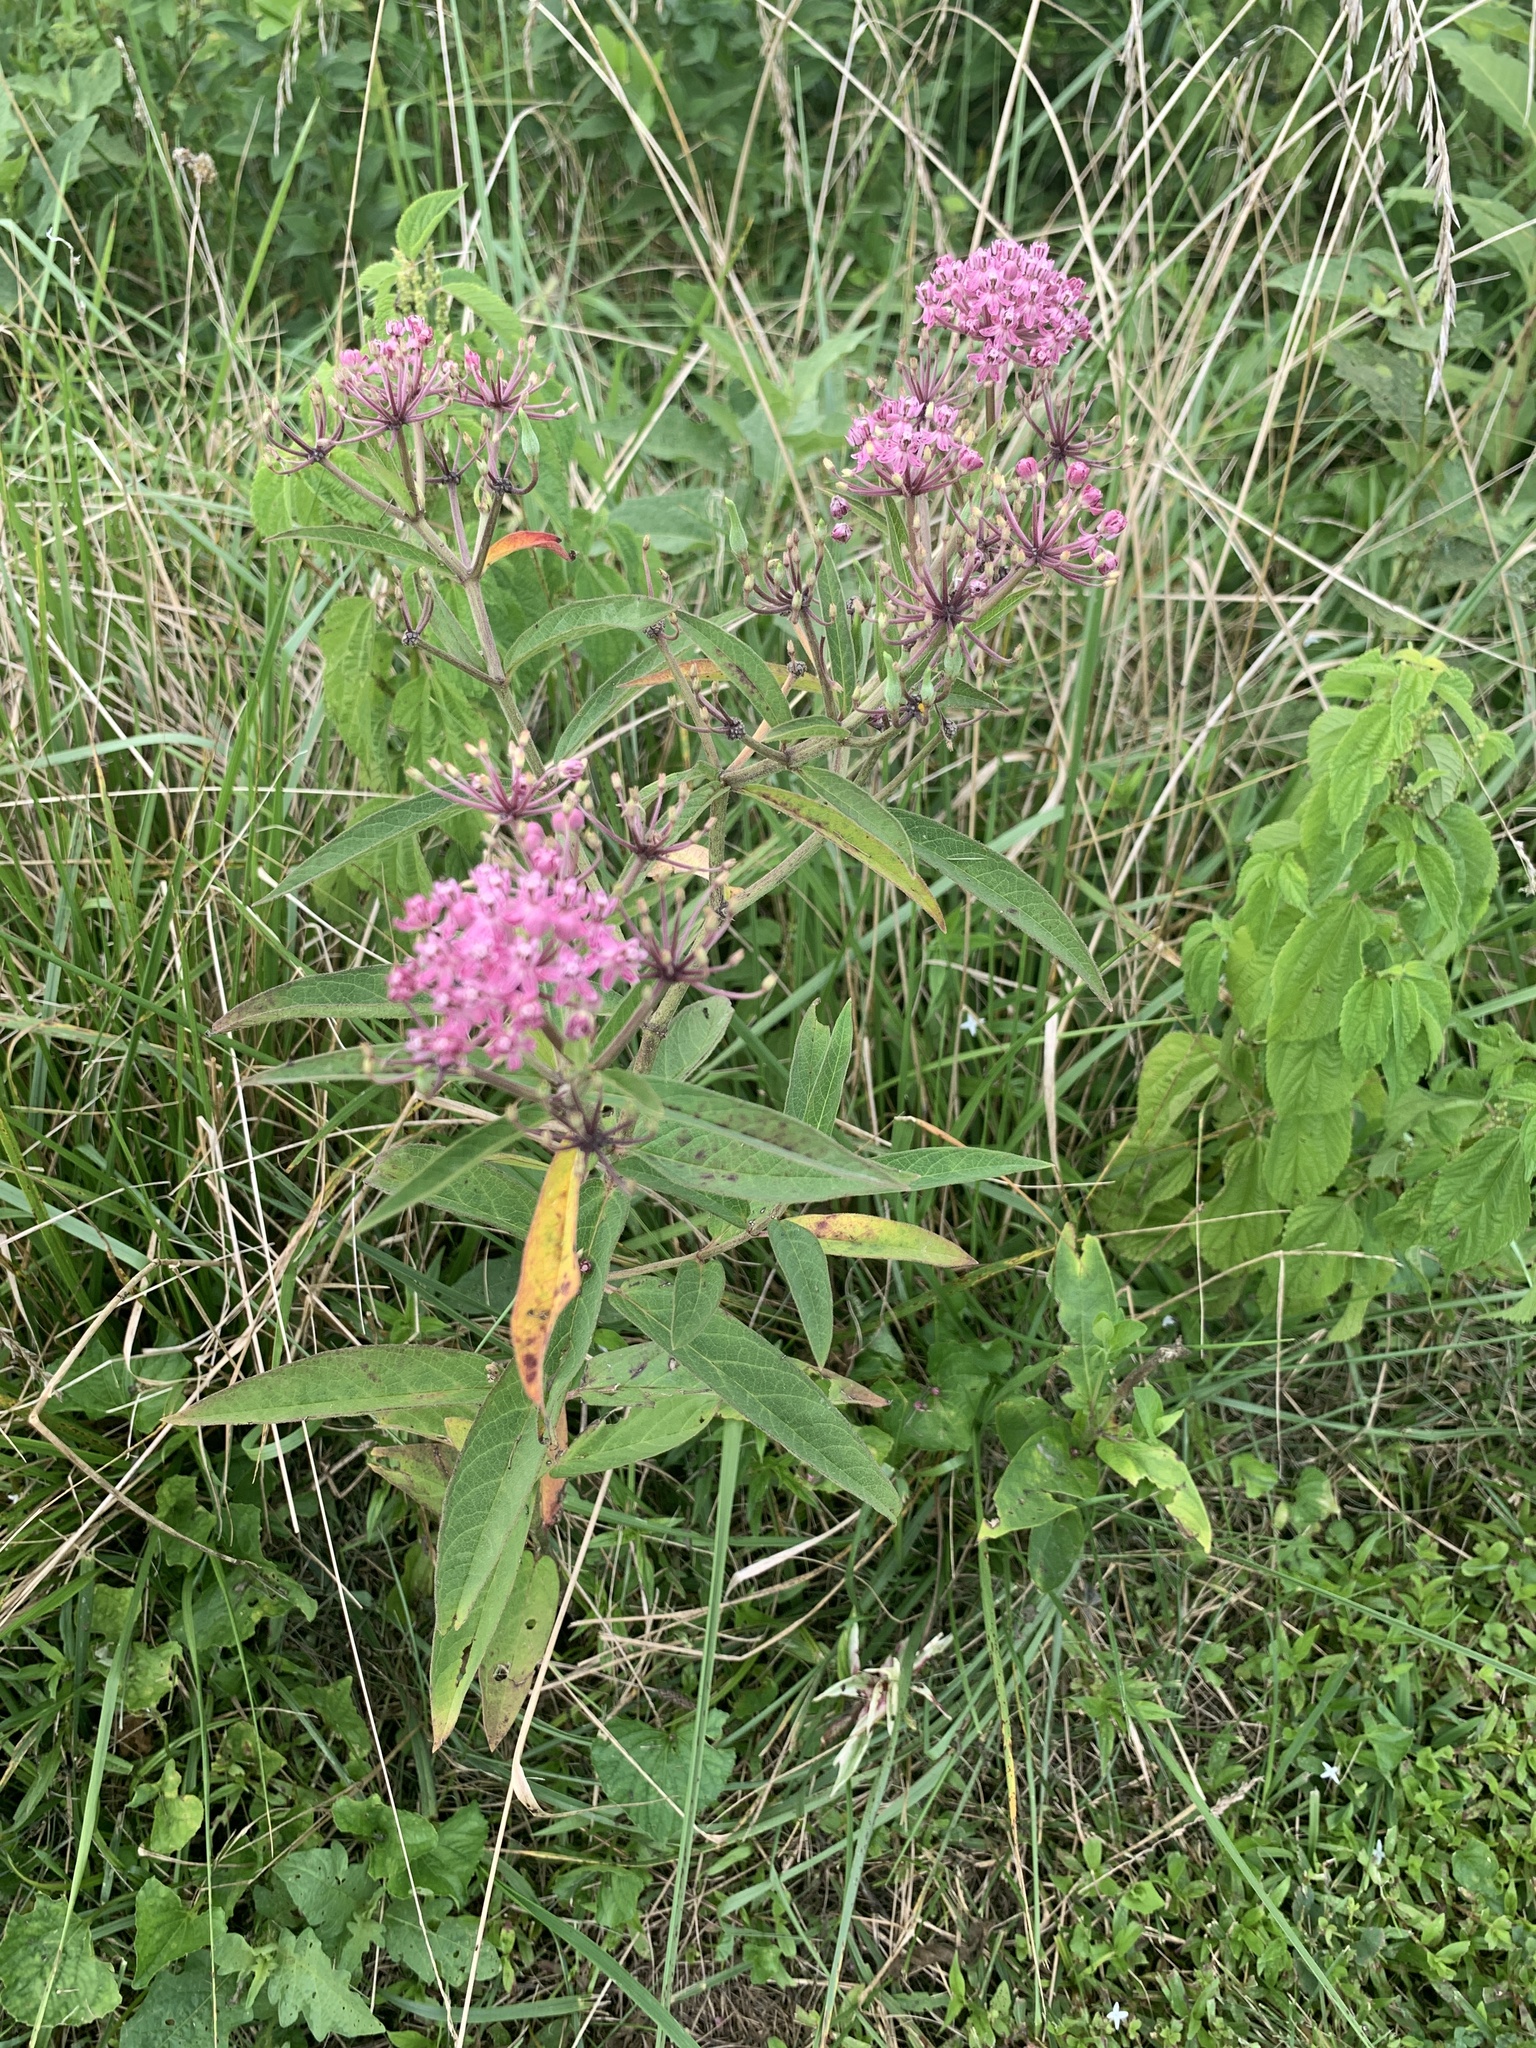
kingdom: Plantae
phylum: Tracheophyta
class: Magnoliopsida
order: Gentianales
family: Apocynaceae
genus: Asclepias
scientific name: Asclepias incarnata
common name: Swamp milkweed
